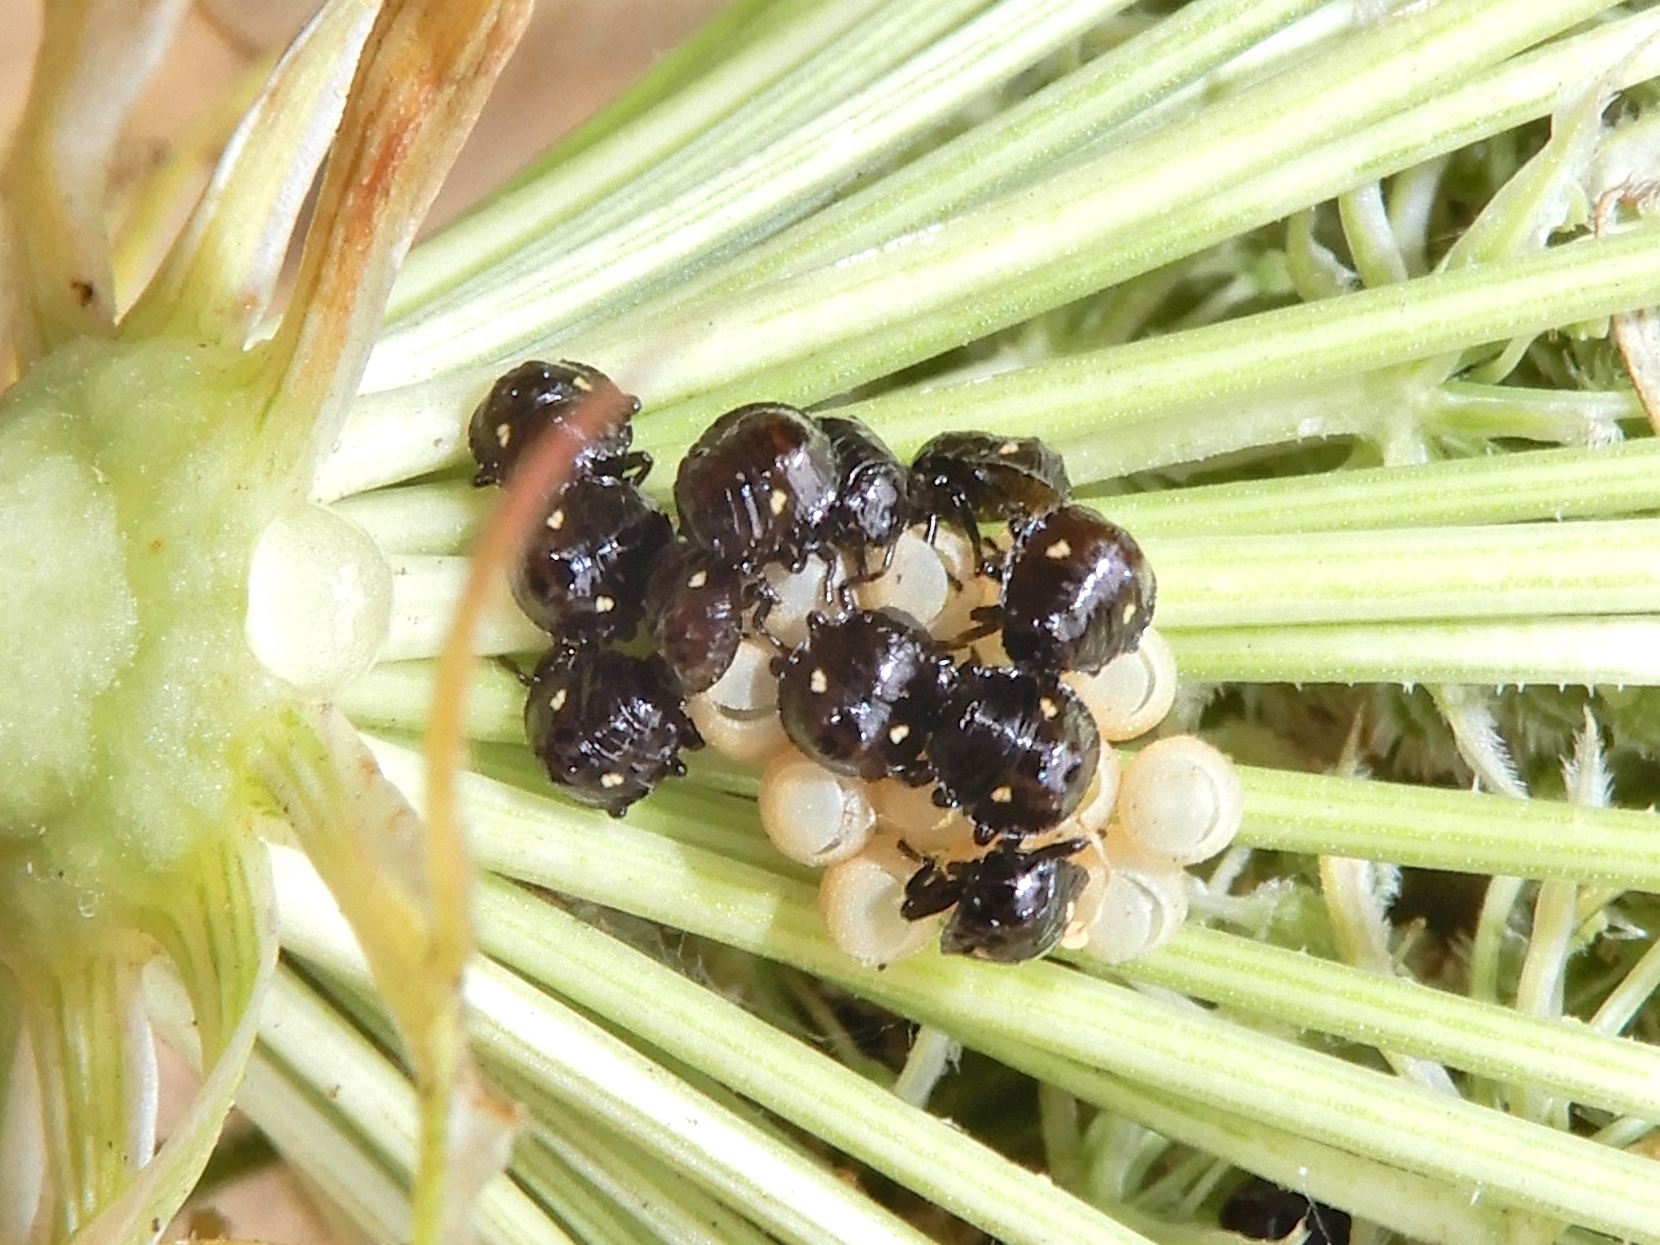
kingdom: Animalia
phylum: Arthropoda
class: Insecta
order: Hemiptera
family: Pentatomidae
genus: Glaucias
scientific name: Glaucias amyota
